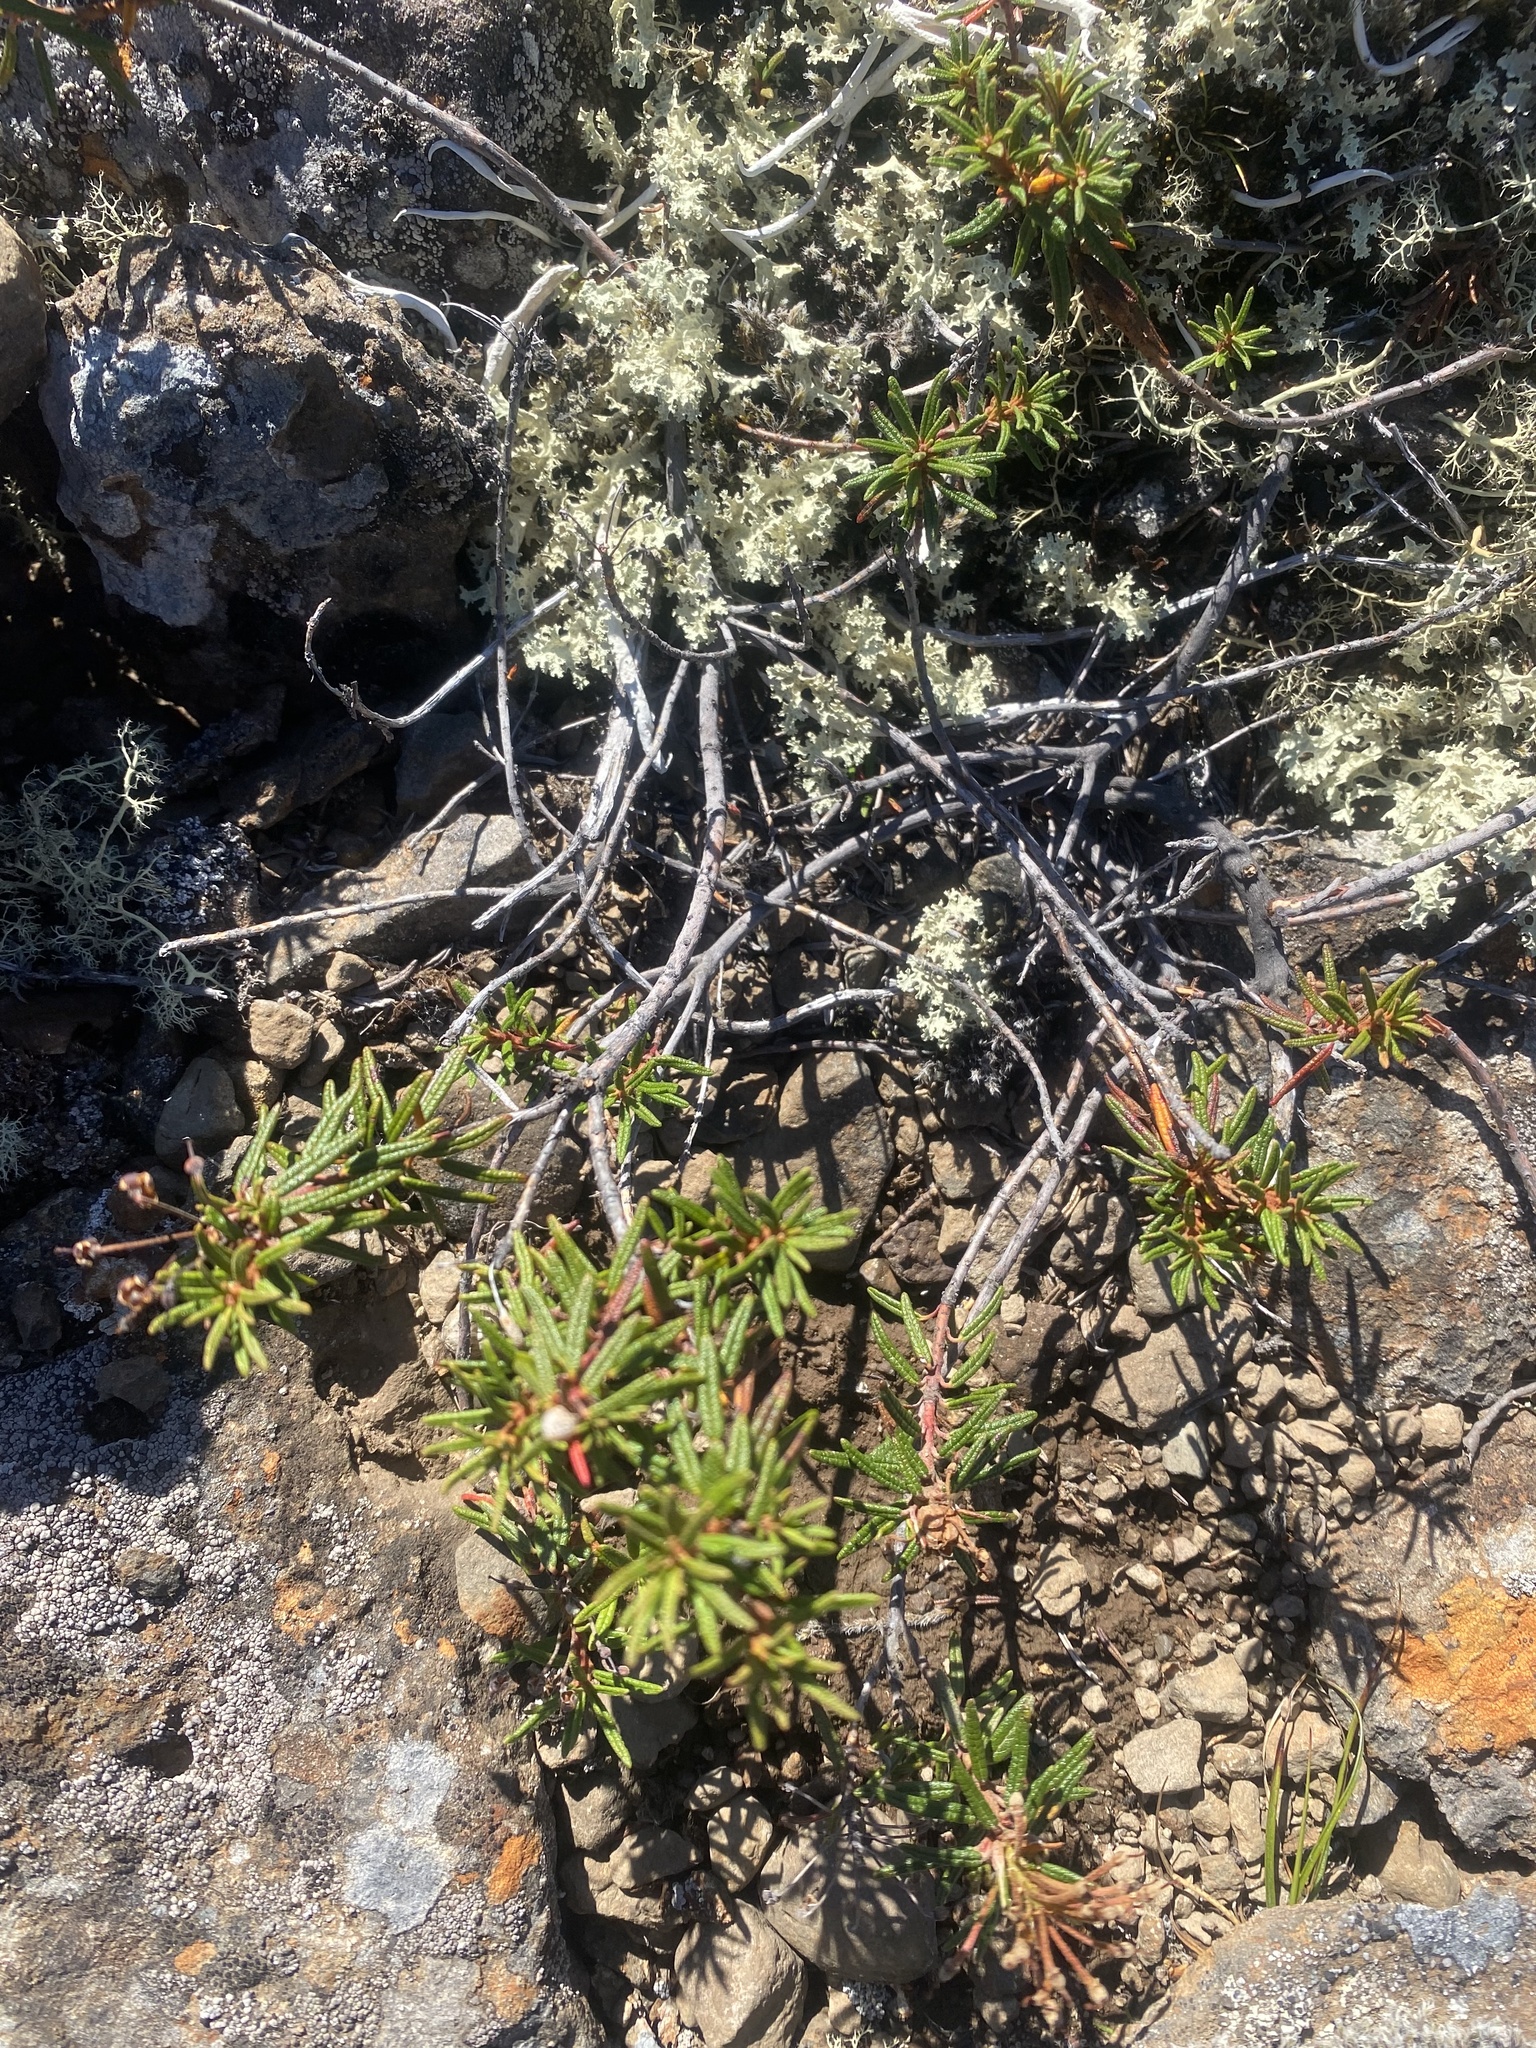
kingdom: Plantae
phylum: Tracheophyta
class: Magnoliopsida
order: Ericales
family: Ericaceae
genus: Rhododendron
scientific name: Rhododendron tomentosum
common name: Marsh labrador tea
